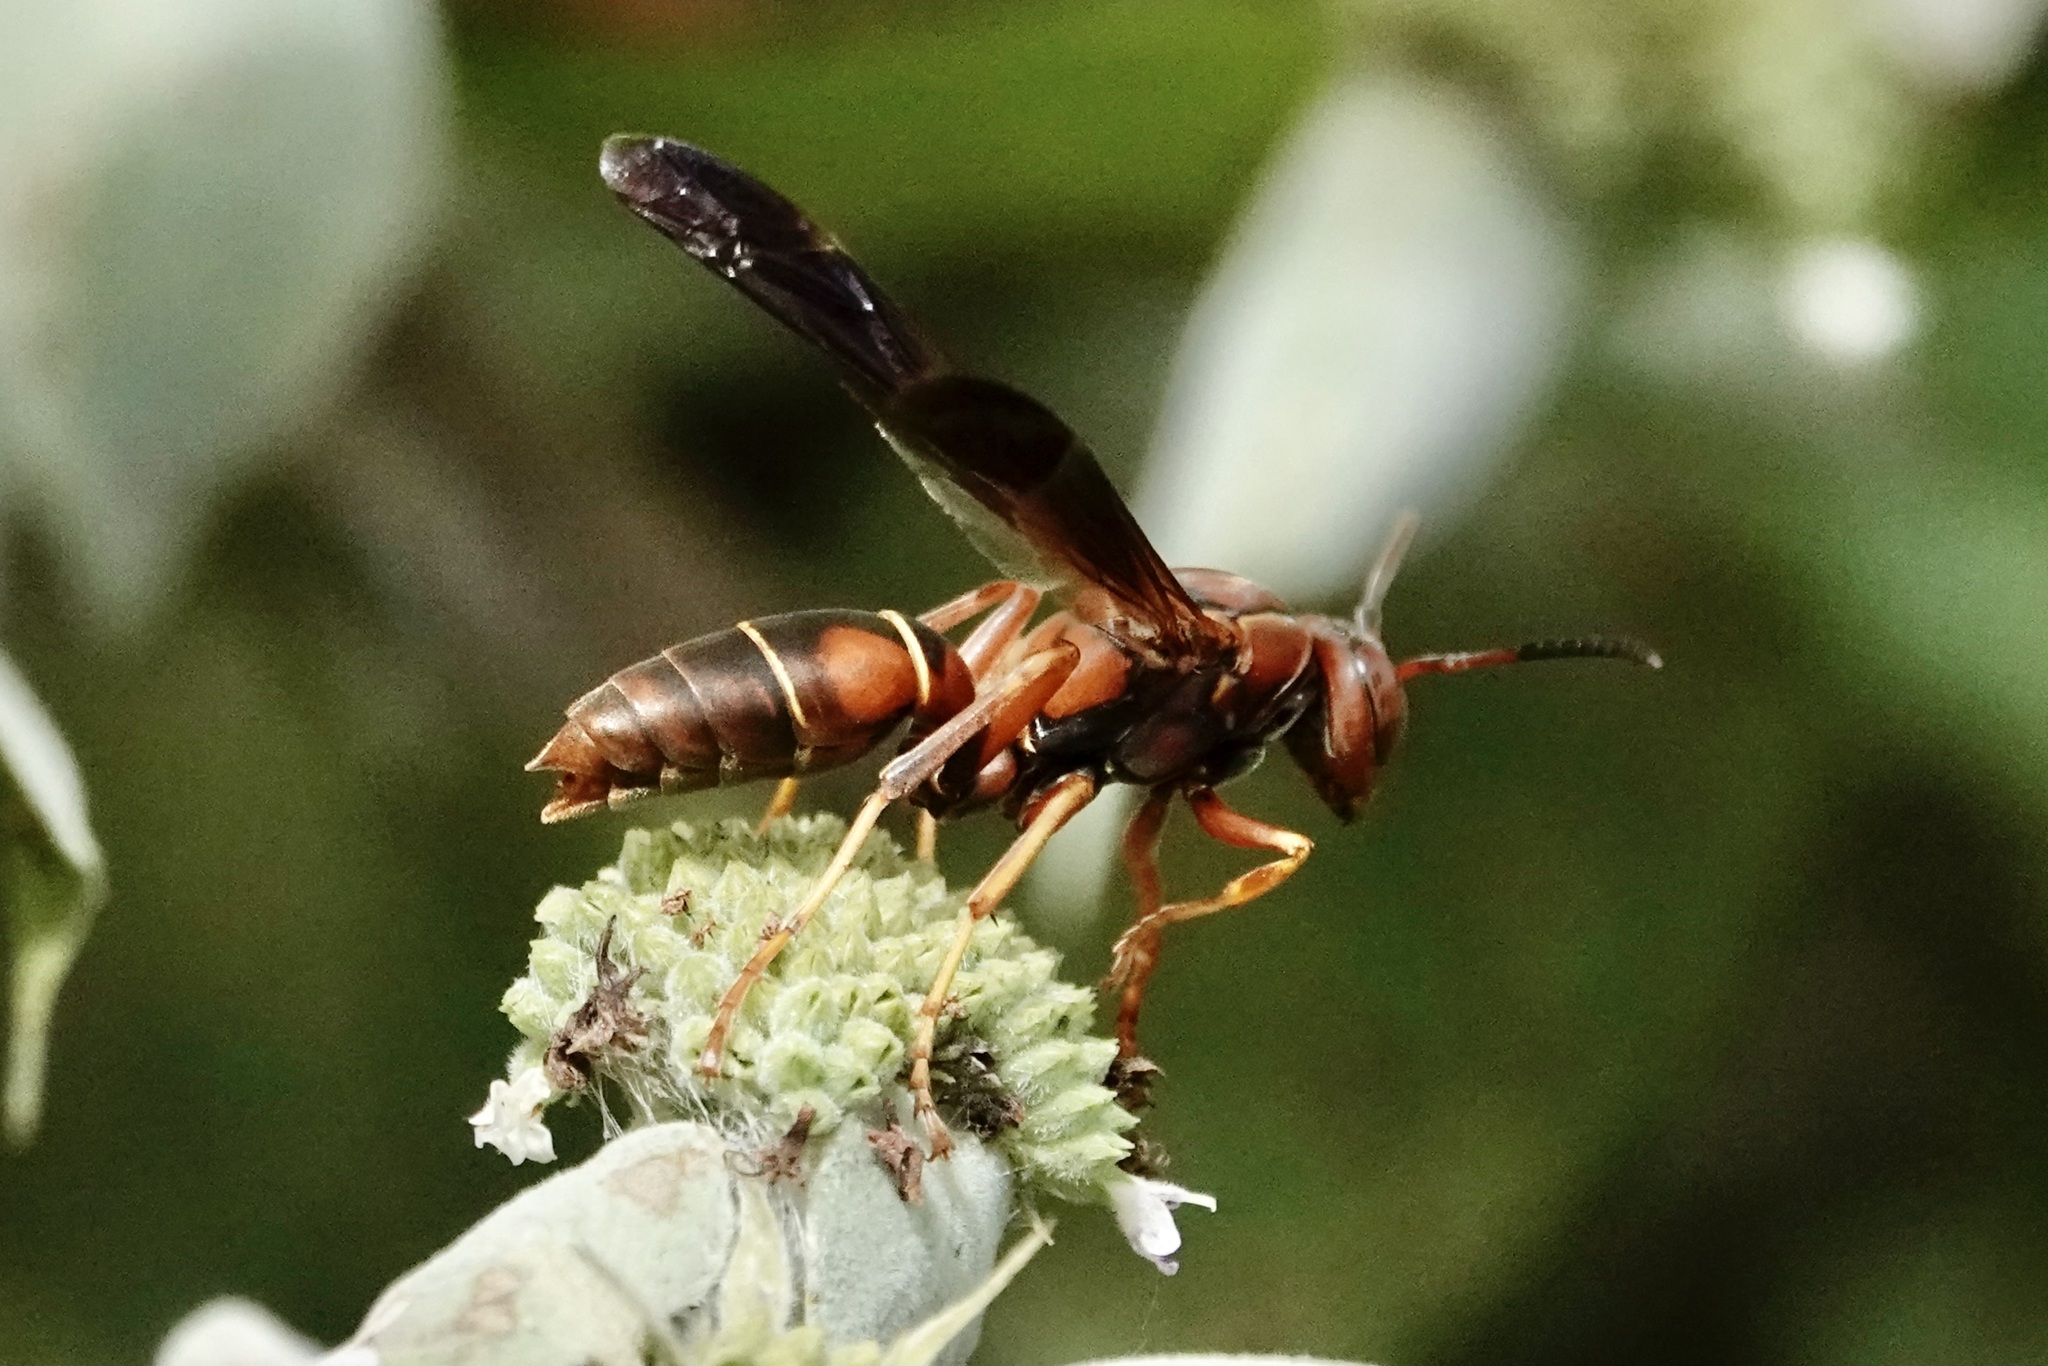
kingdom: Animalia
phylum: Arthropoda
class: Insecta
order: Hymenoptera
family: Eumenidae
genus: Polistes
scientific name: Polistes fuscatus
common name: Dark paper wasp
